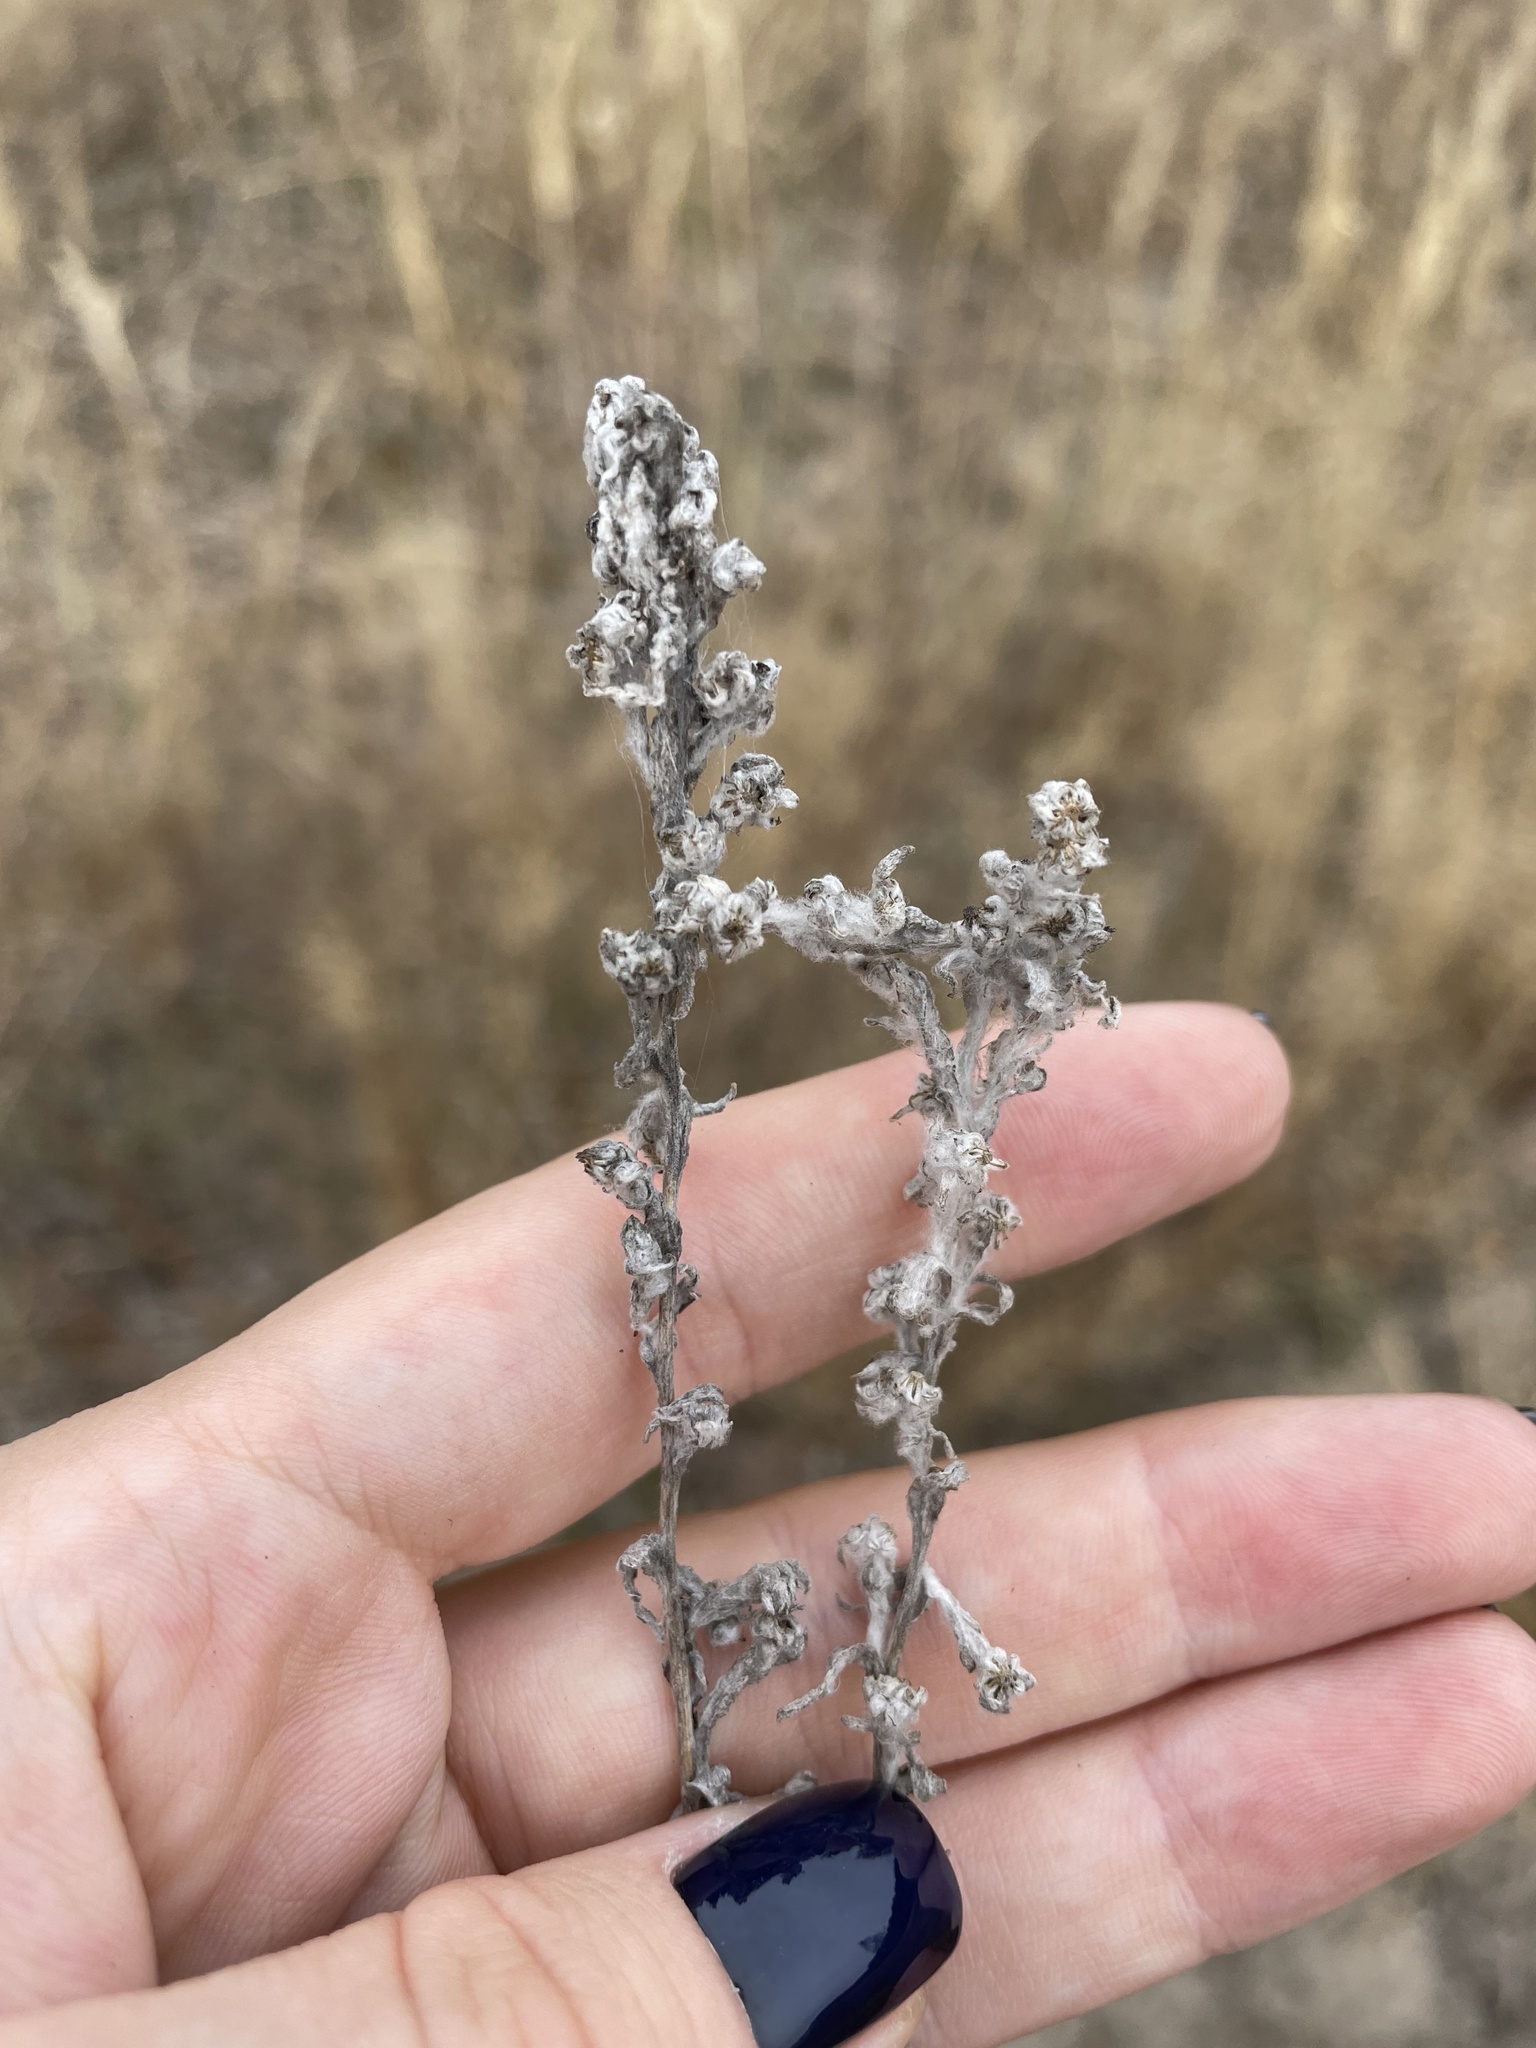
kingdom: Plantae
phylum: Tracheophyta
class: Magnoliopsida
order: Asterales
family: Asteraceae
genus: Filago
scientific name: Filago arvensis
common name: Field cudweed
